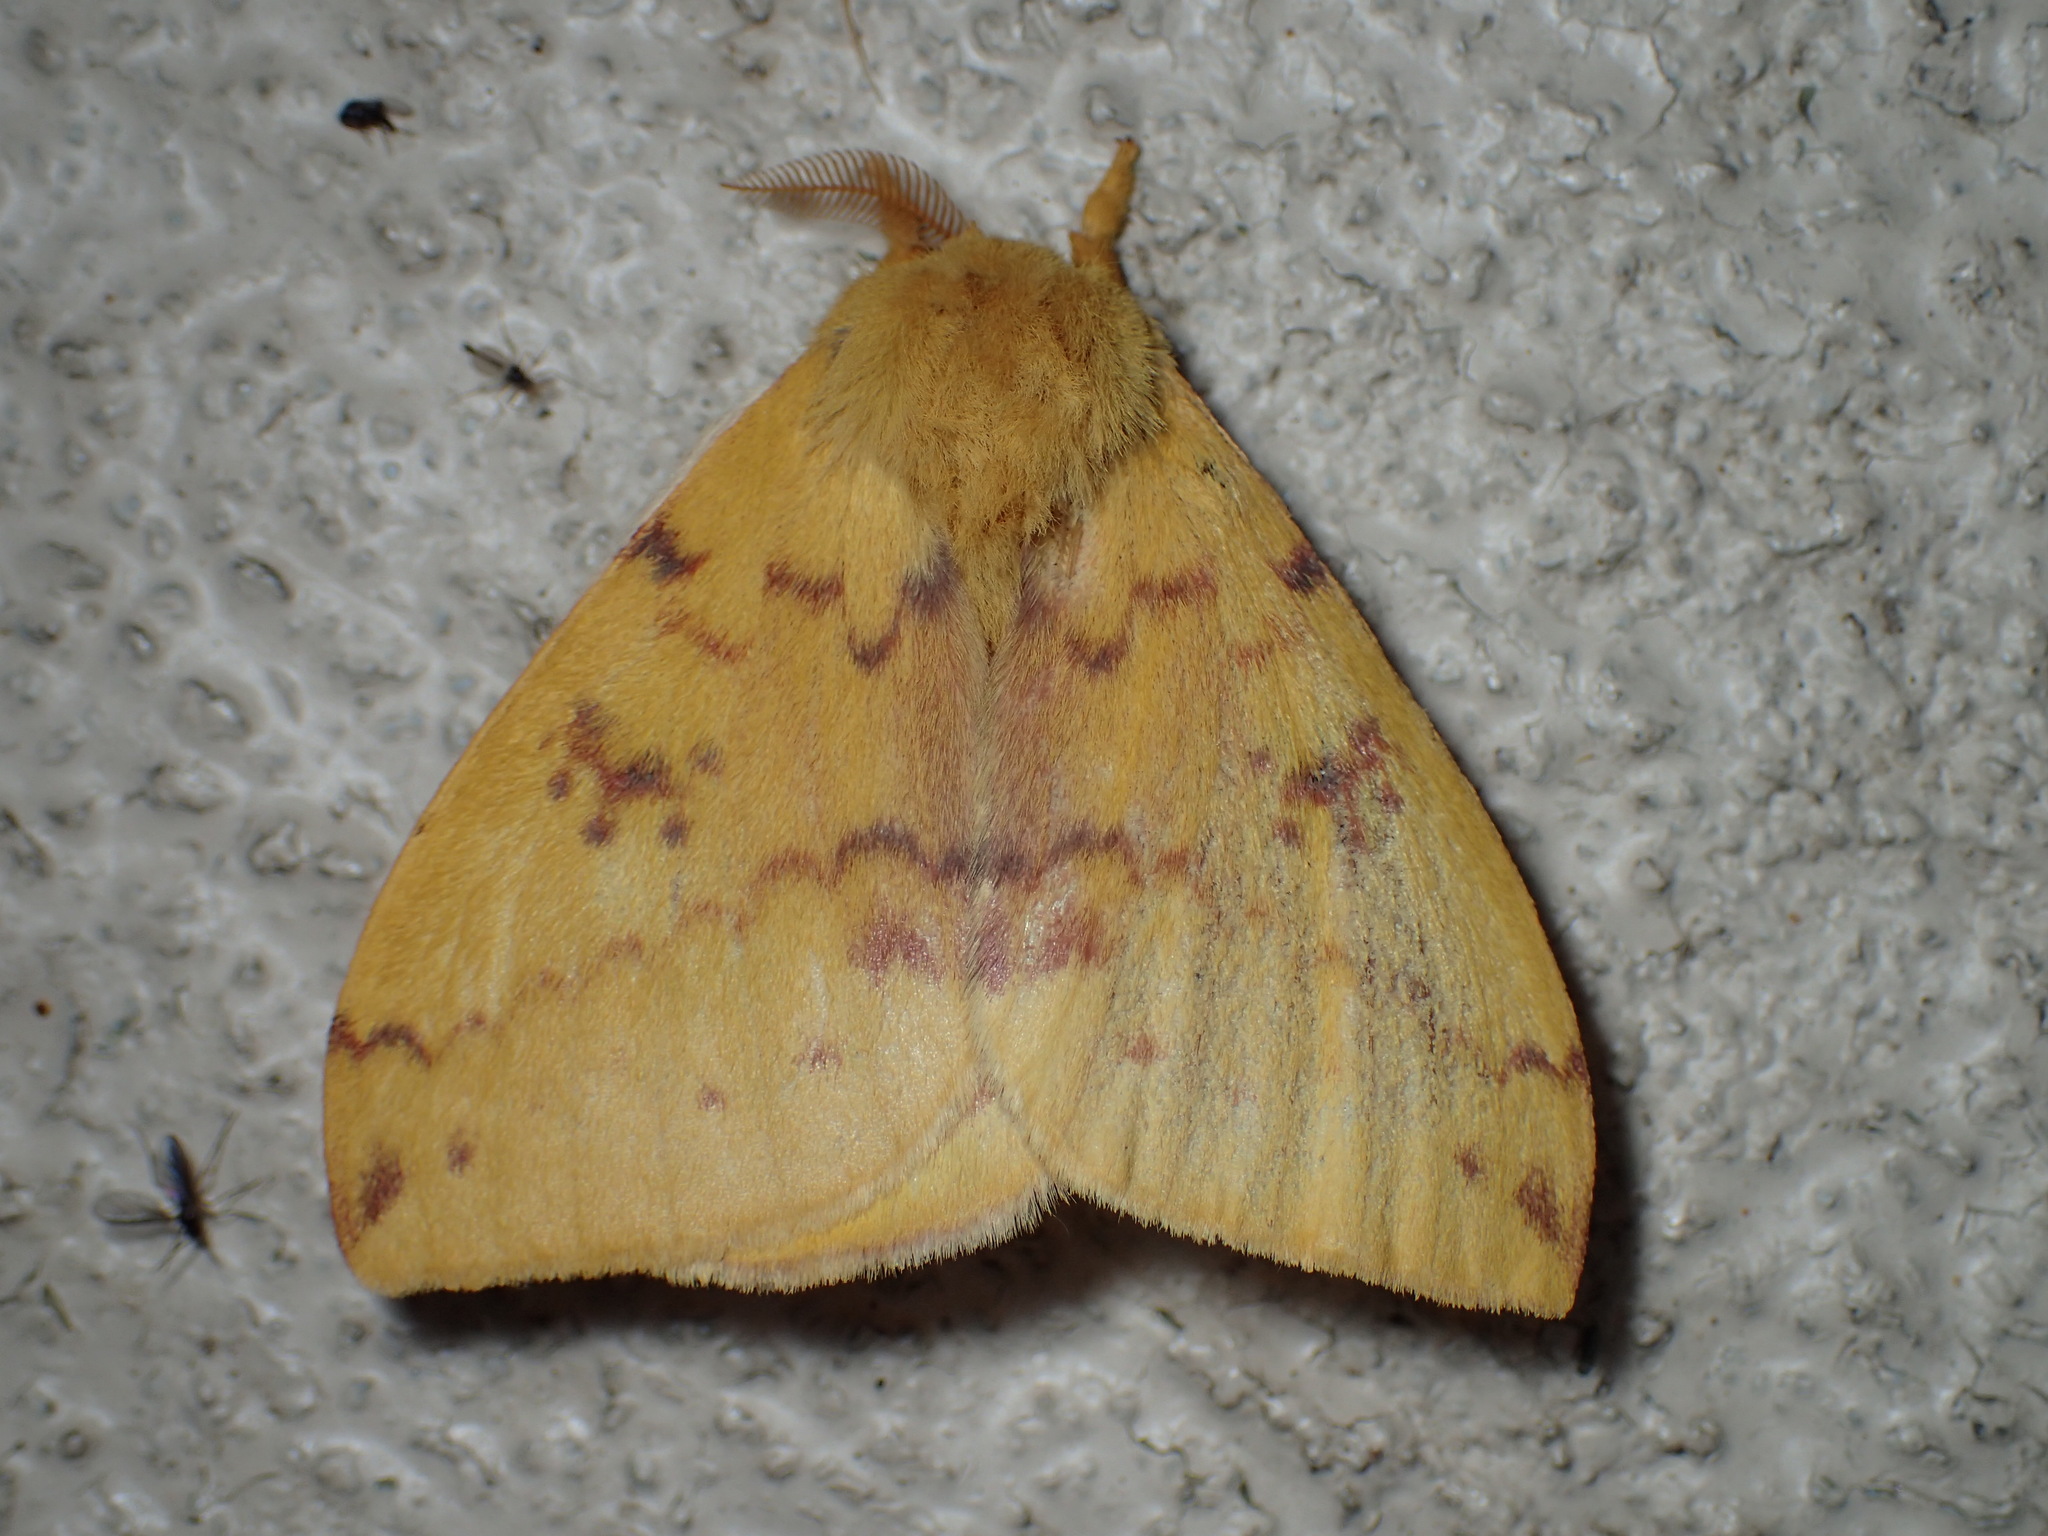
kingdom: Animalia
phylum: Arthropoda
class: Insecta
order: Lepidoptera
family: Saturniidae
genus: Automeris
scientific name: Automeris io
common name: Io moth
